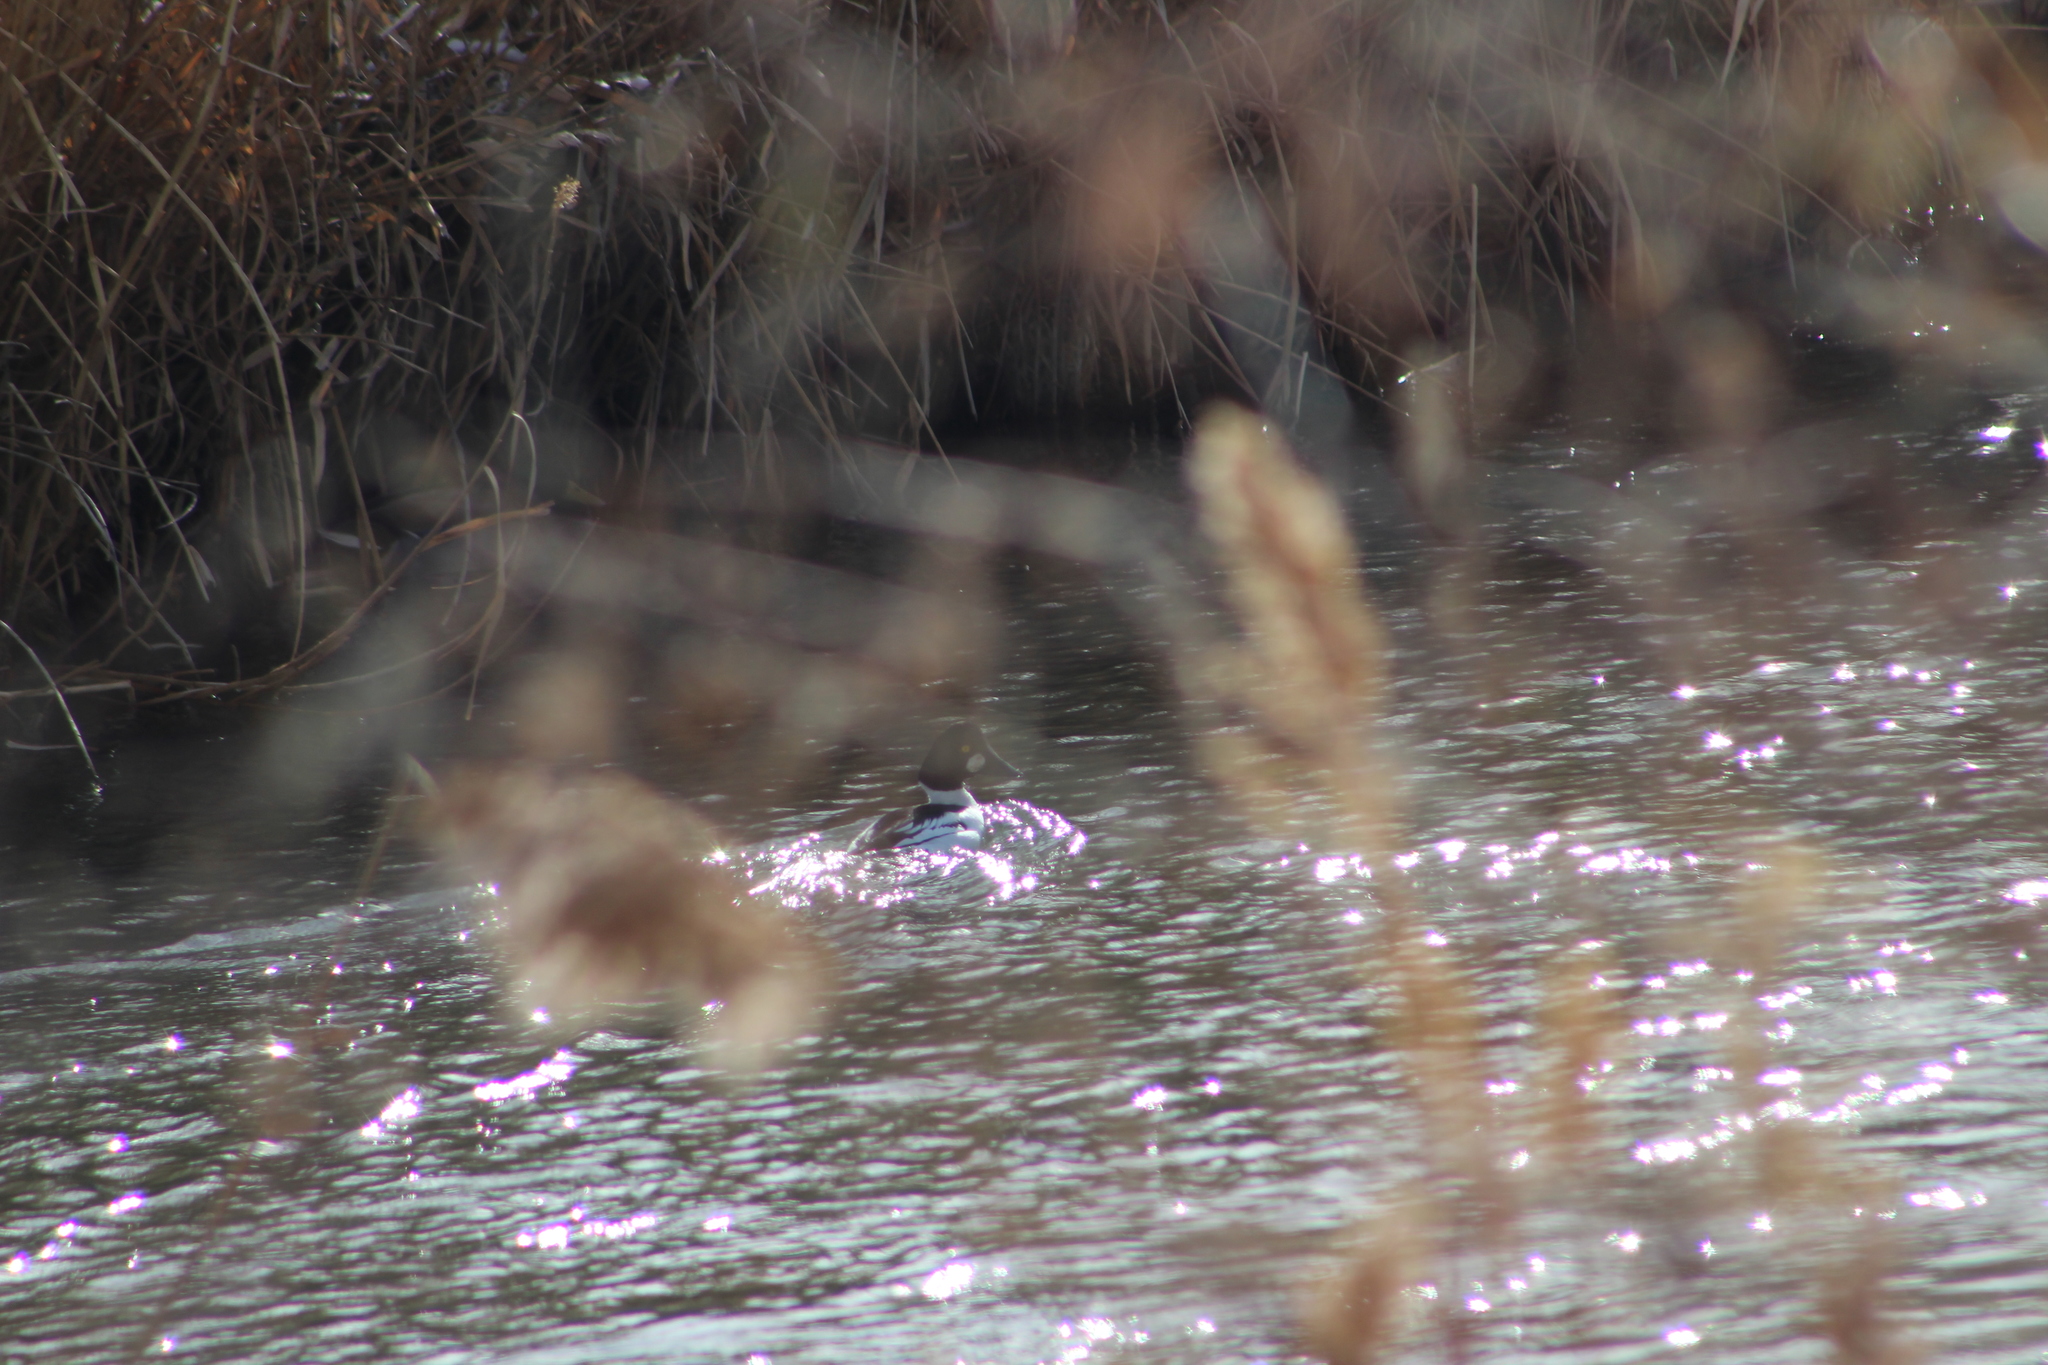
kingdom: Animalia
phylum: Chordata
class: Aves
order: Anseriformes
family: Anatidae
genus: Bucephala
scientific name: Bucephala clangula
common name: Common goldeneye
